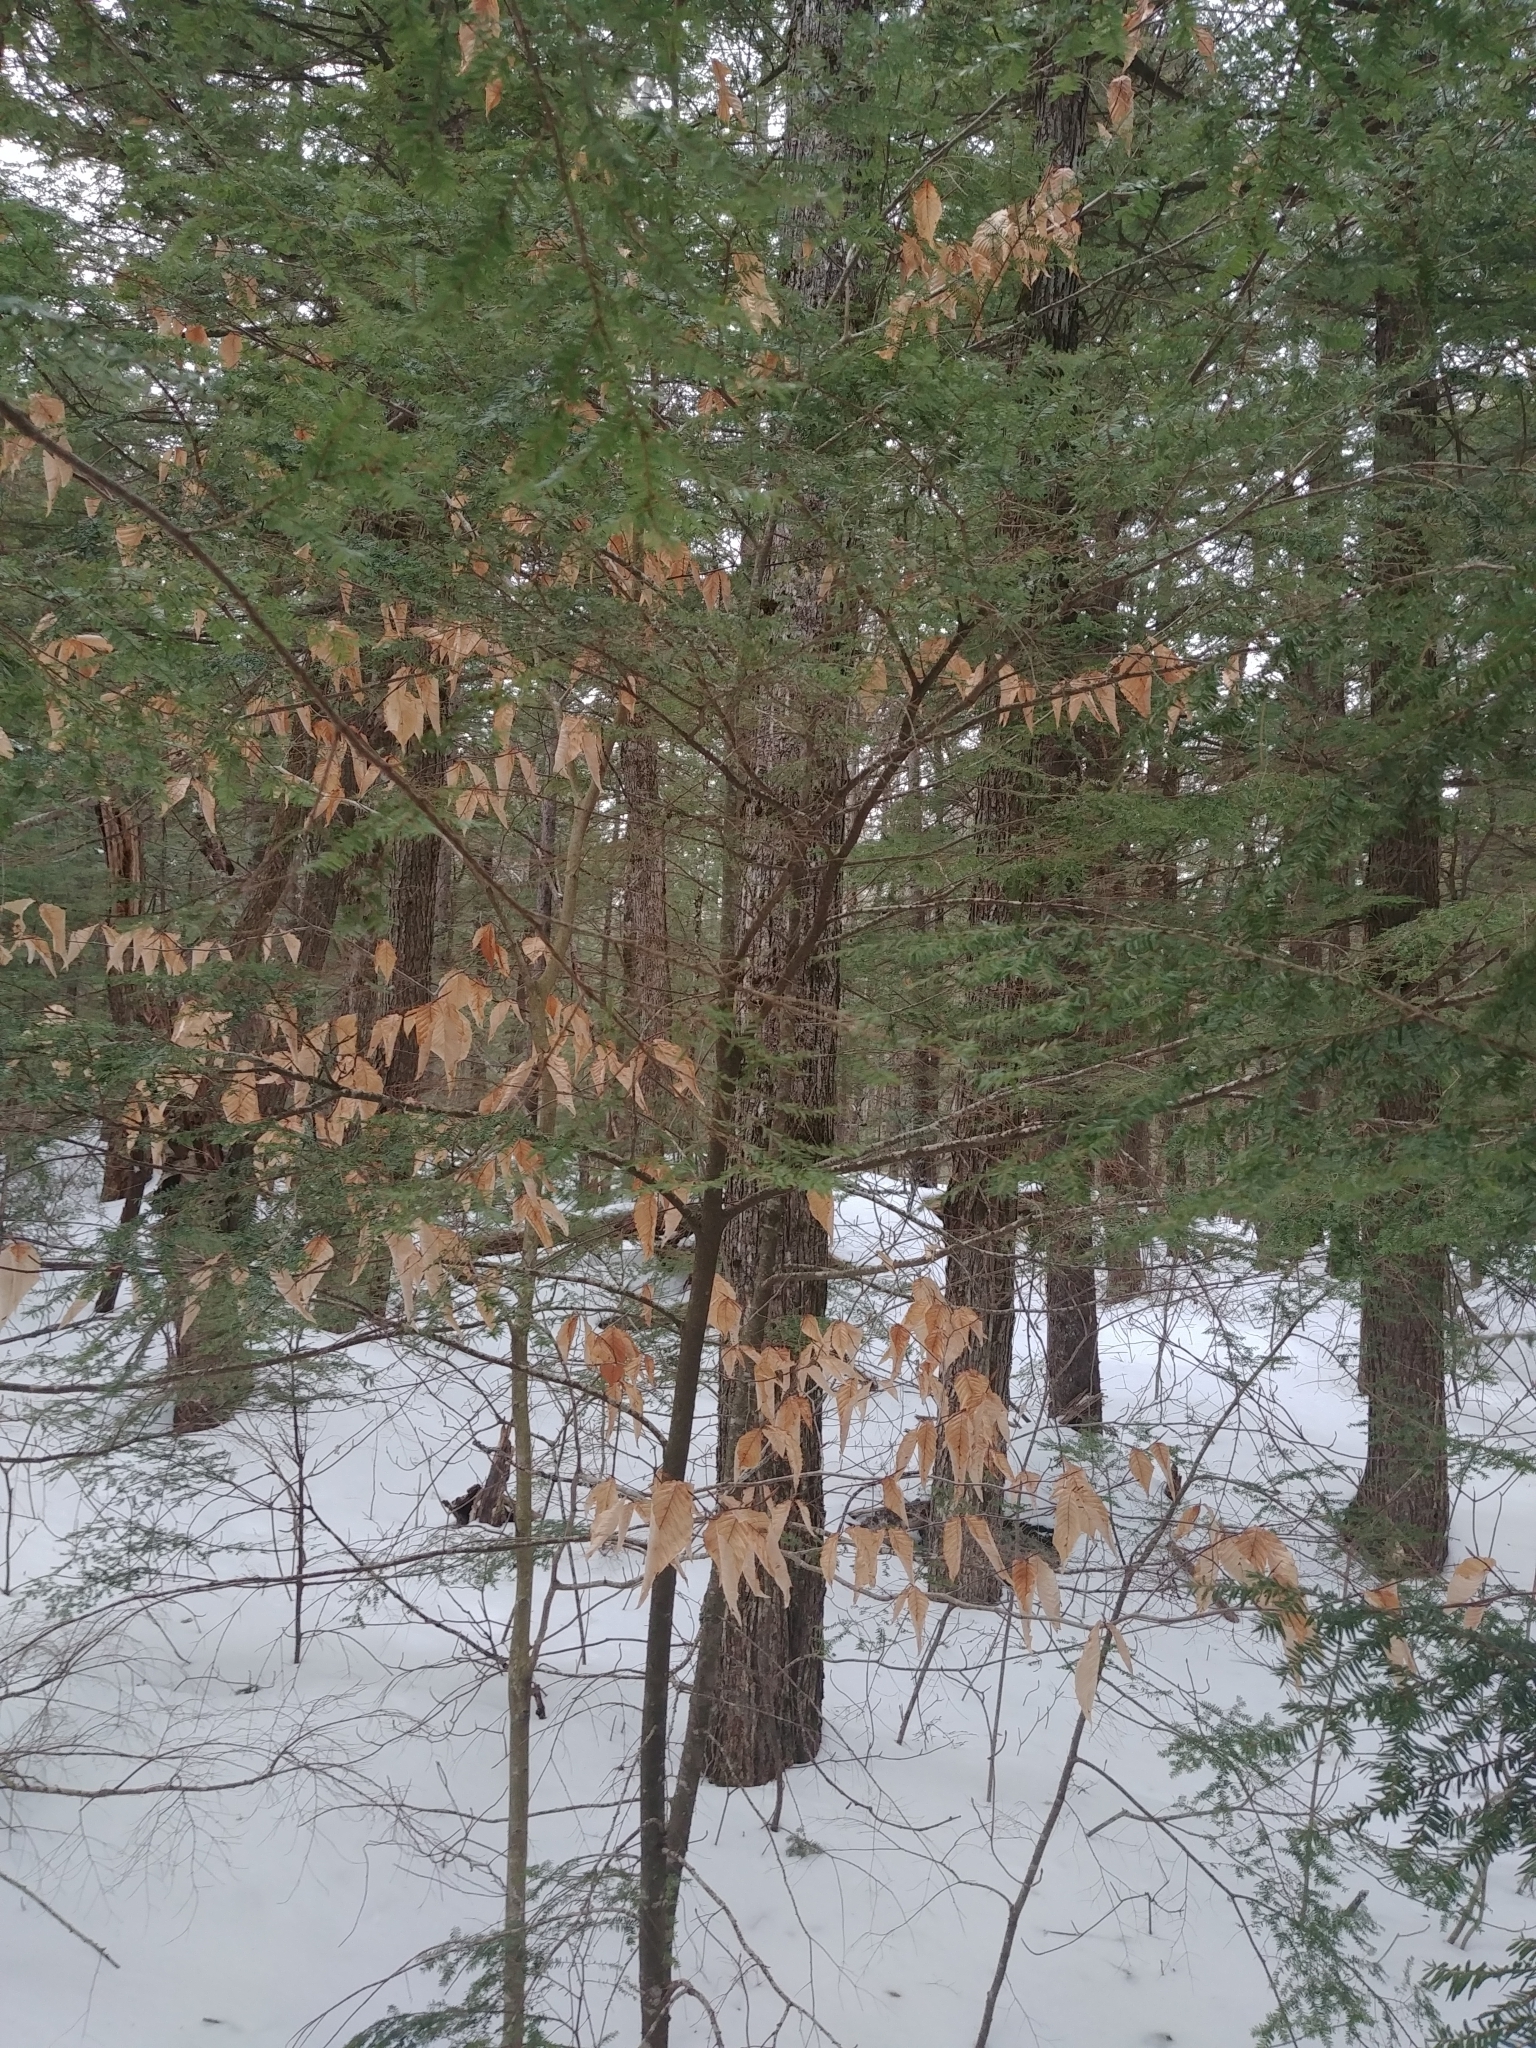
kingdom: Plantae
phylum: Tracheophyta
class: Magnoliopsida
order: Fagales
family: Fagaceae
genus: Fagus
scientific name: Fagus grandifolia
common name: American beech
